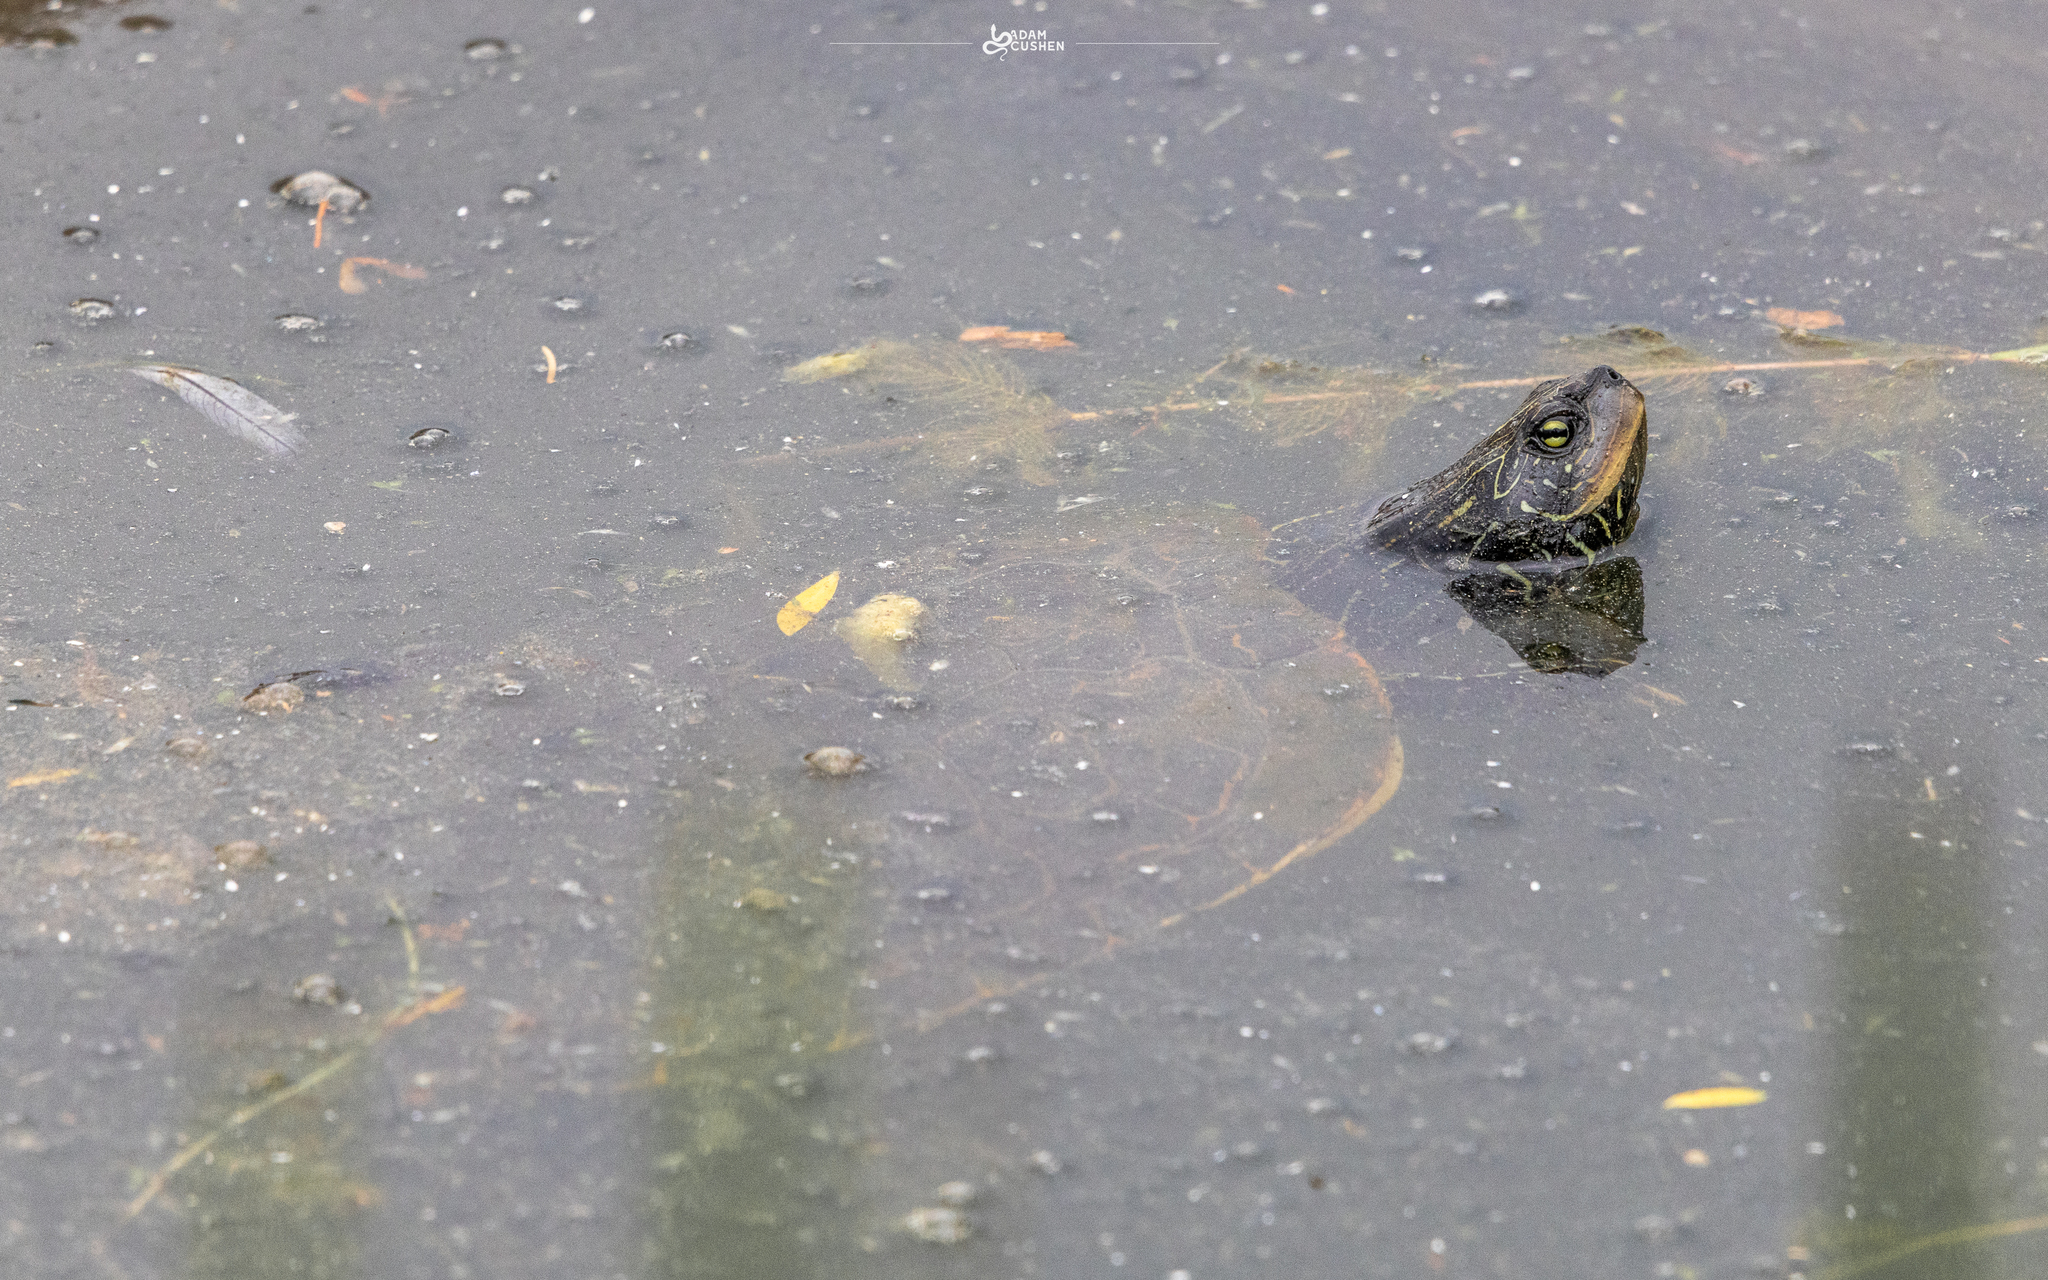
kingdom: Animalia
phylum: Chordata
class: Testudines
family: Emydidae
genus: Graptemys
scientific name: Graptemys geographica
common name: Common map turtle
